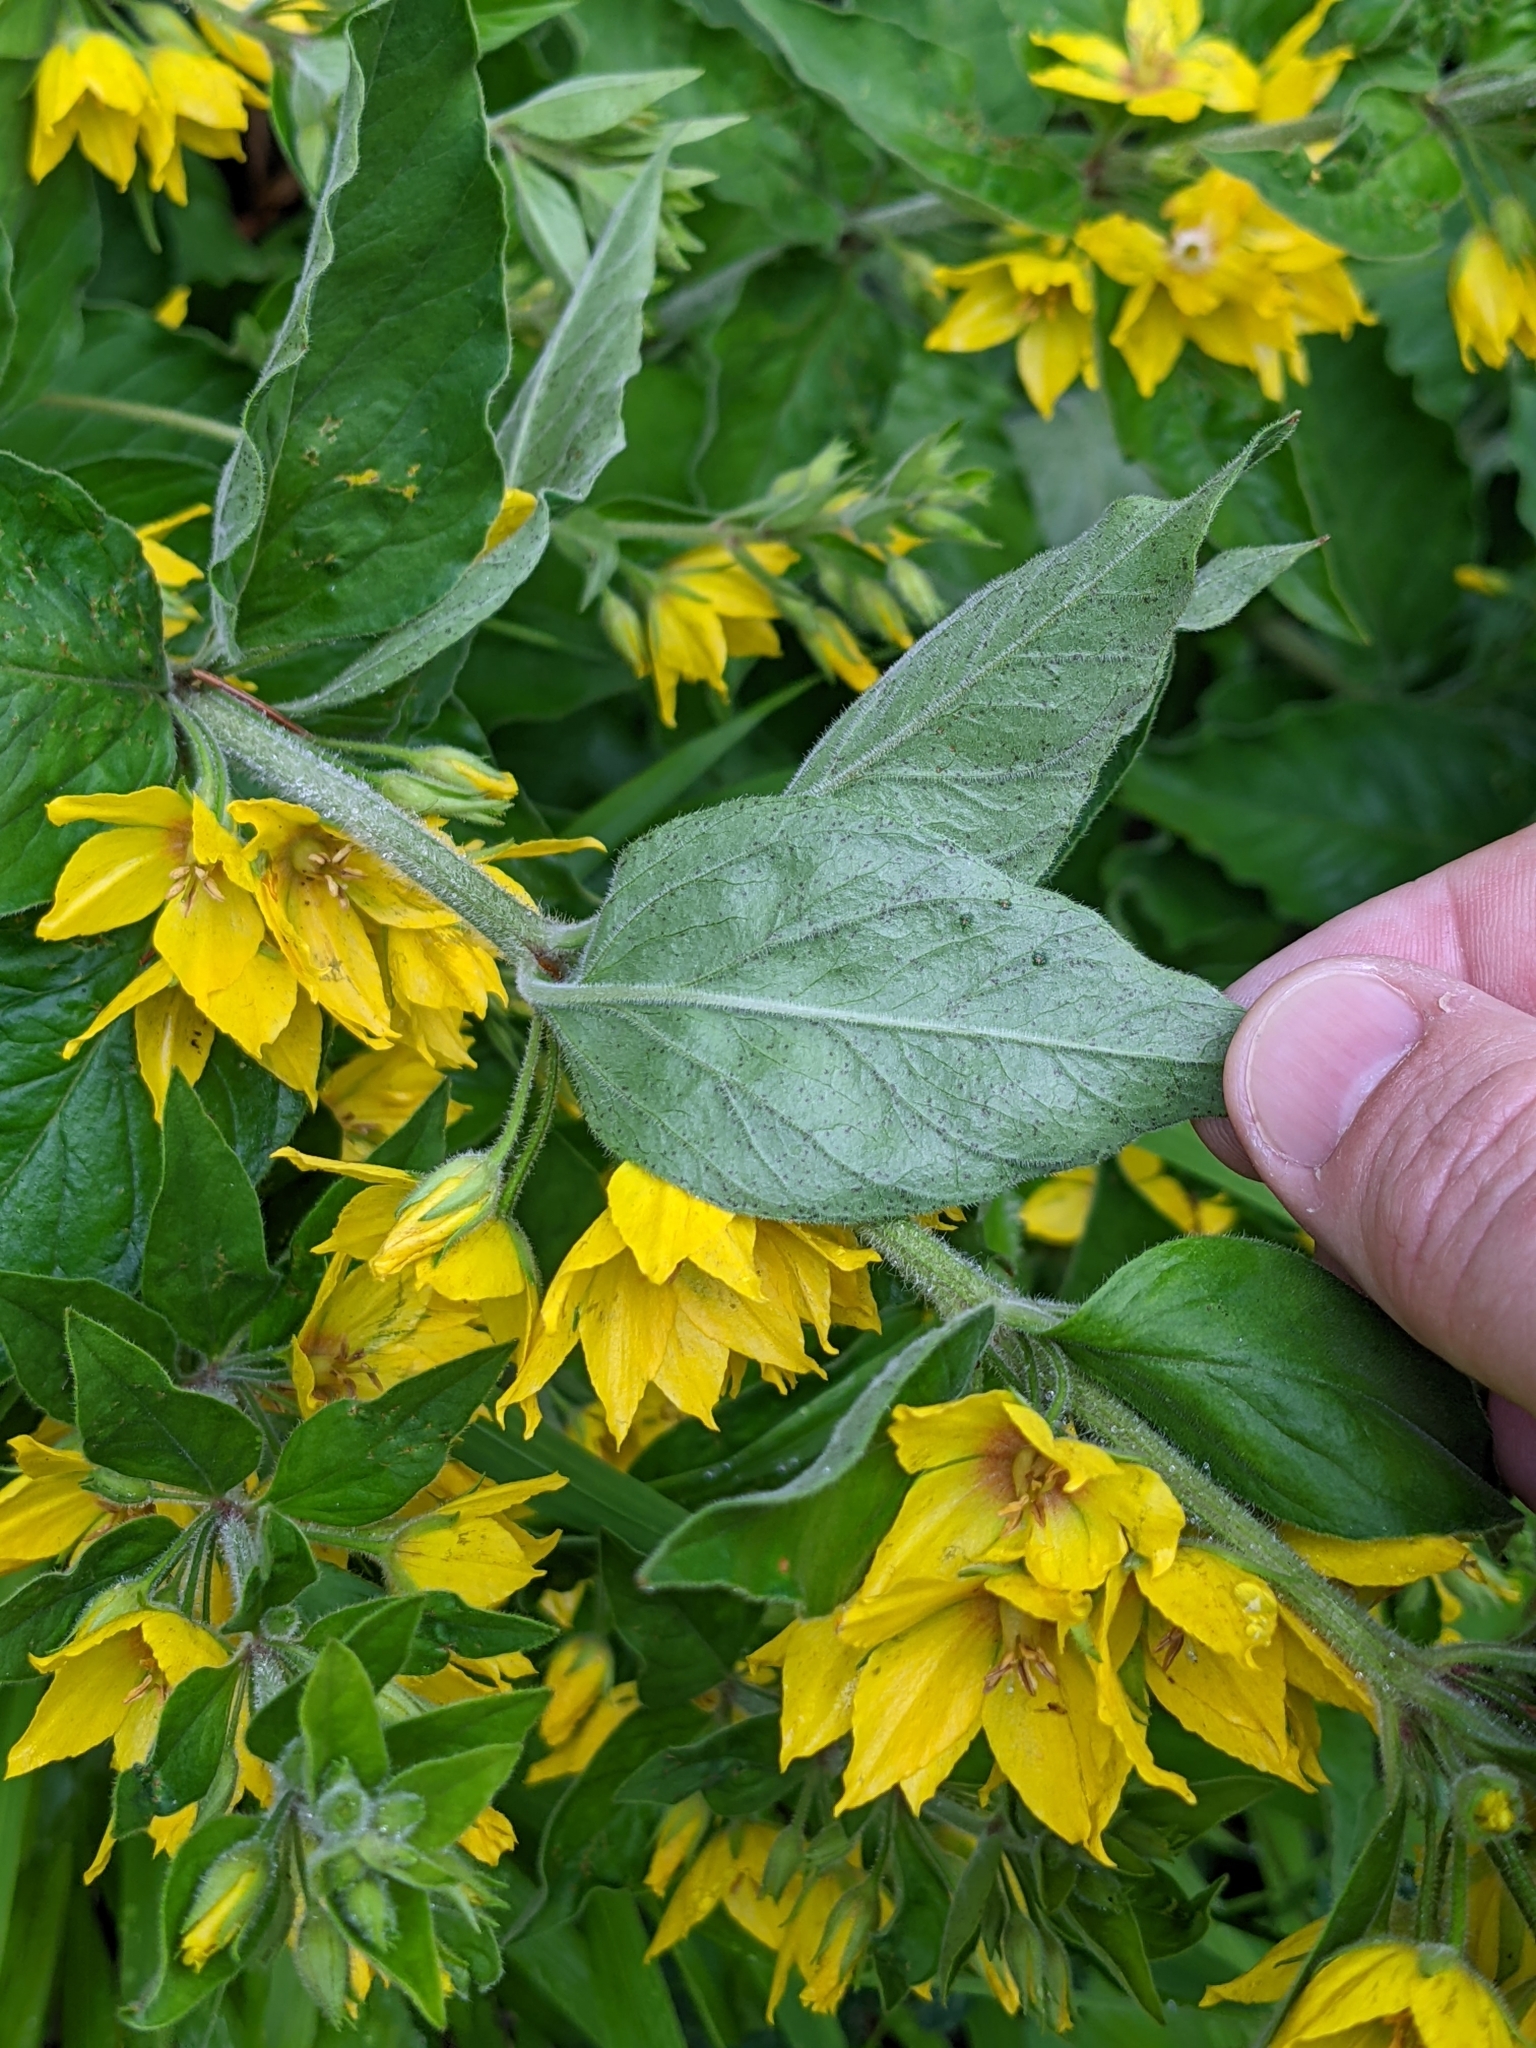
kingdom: Plantae
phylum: Tracheophyta
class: Magnoliopsida
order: Ericales
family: Primulaceae
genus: Lysimachia
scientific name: Lysimachia punctata
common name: Dotted loosestrife
